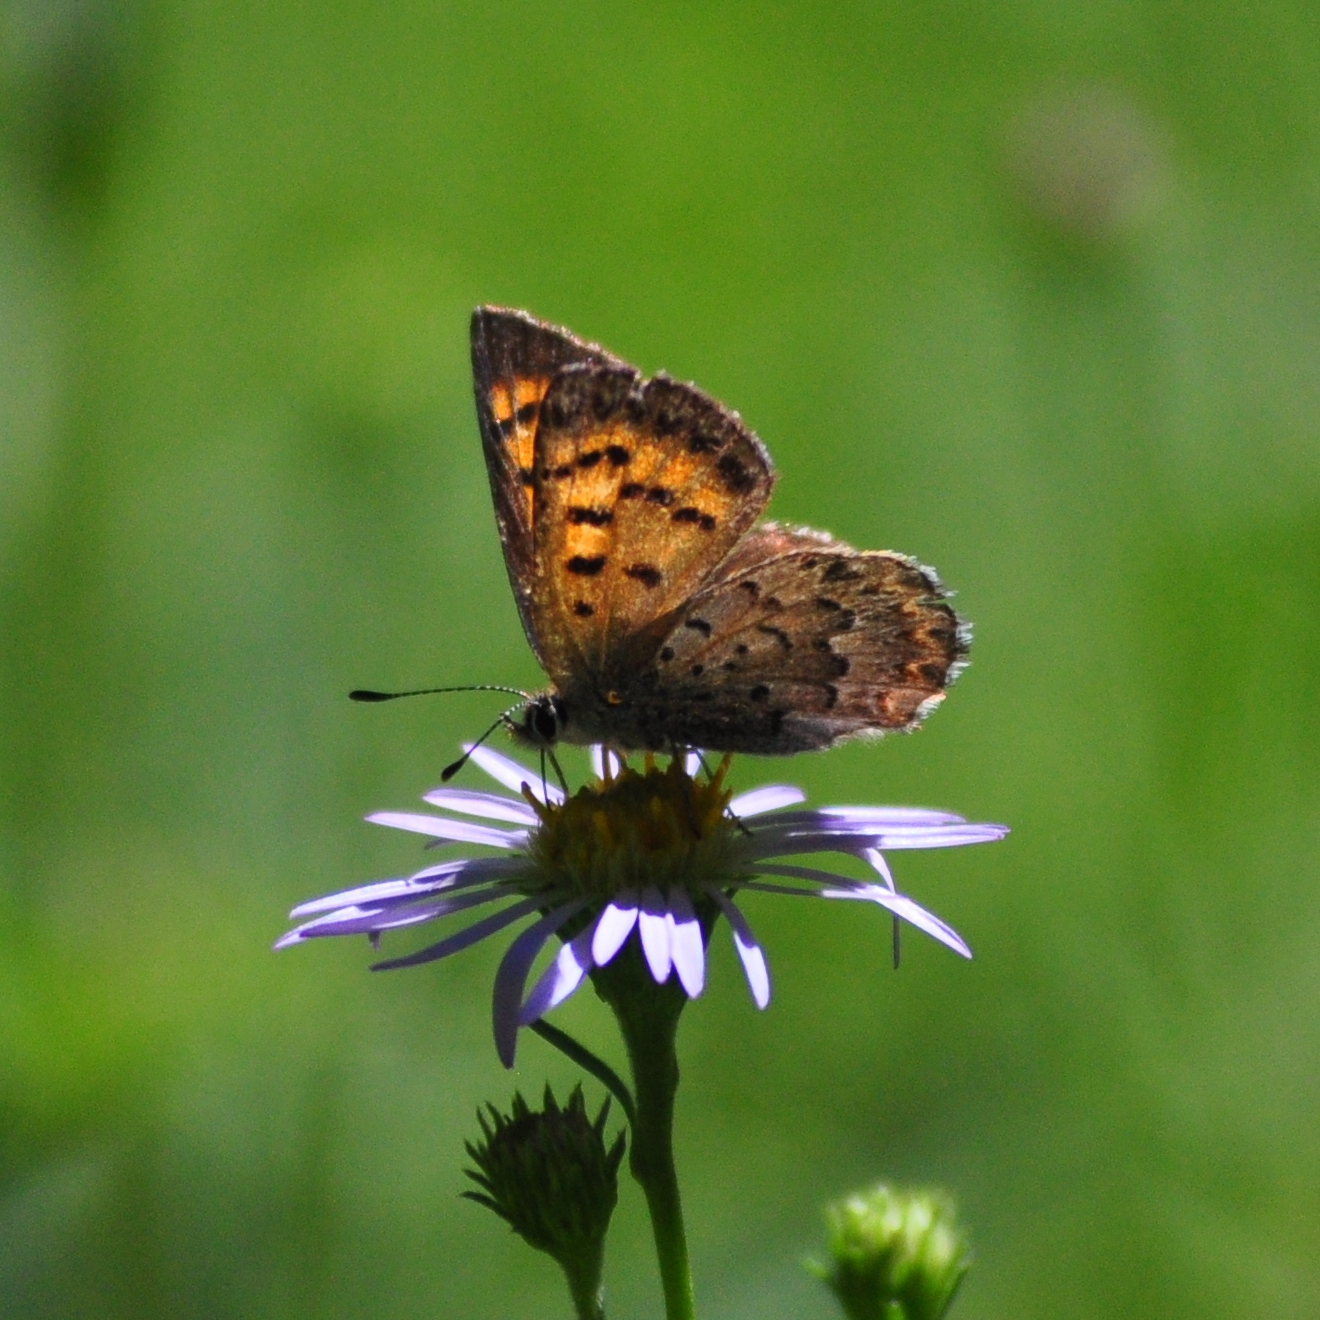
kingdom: Animalia
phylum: Arthropoda
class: Insecta
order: Lepidoptera
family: Lycaenidae
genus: Tharsalea
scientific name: Tharsalea mariposa
